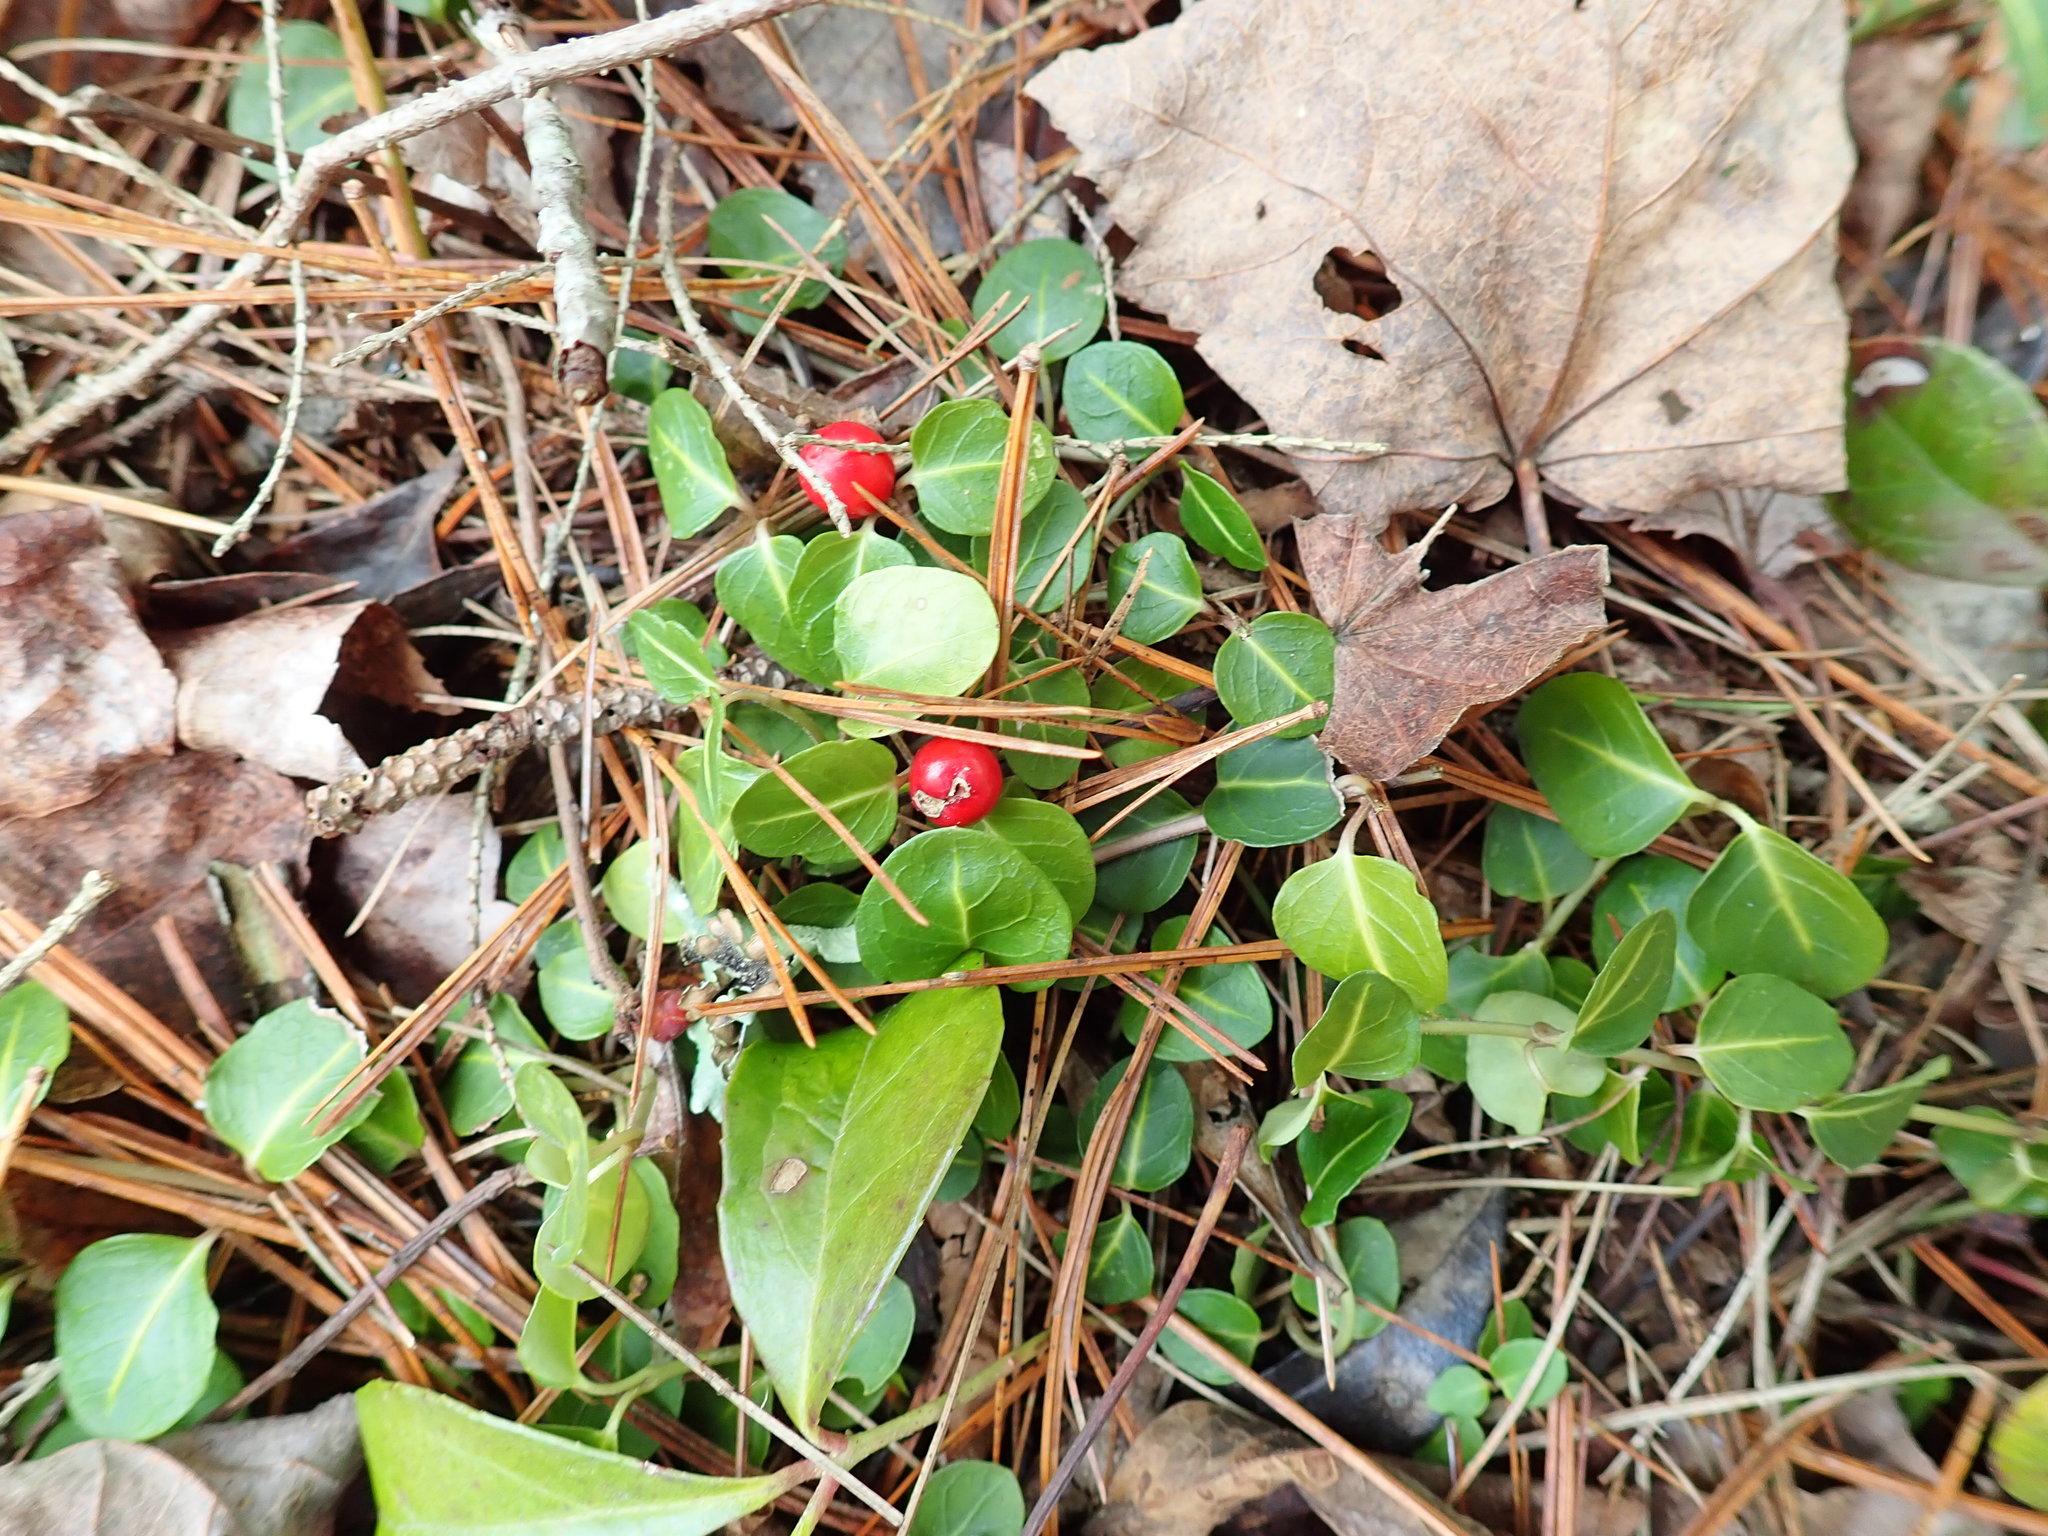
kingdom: Plantae
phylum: Tracheophyta
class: Magnoliopsida
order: Gentianales
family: Rubiaceae
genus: Mitchella
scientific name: Mitchella repens
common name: Partridge-berry
